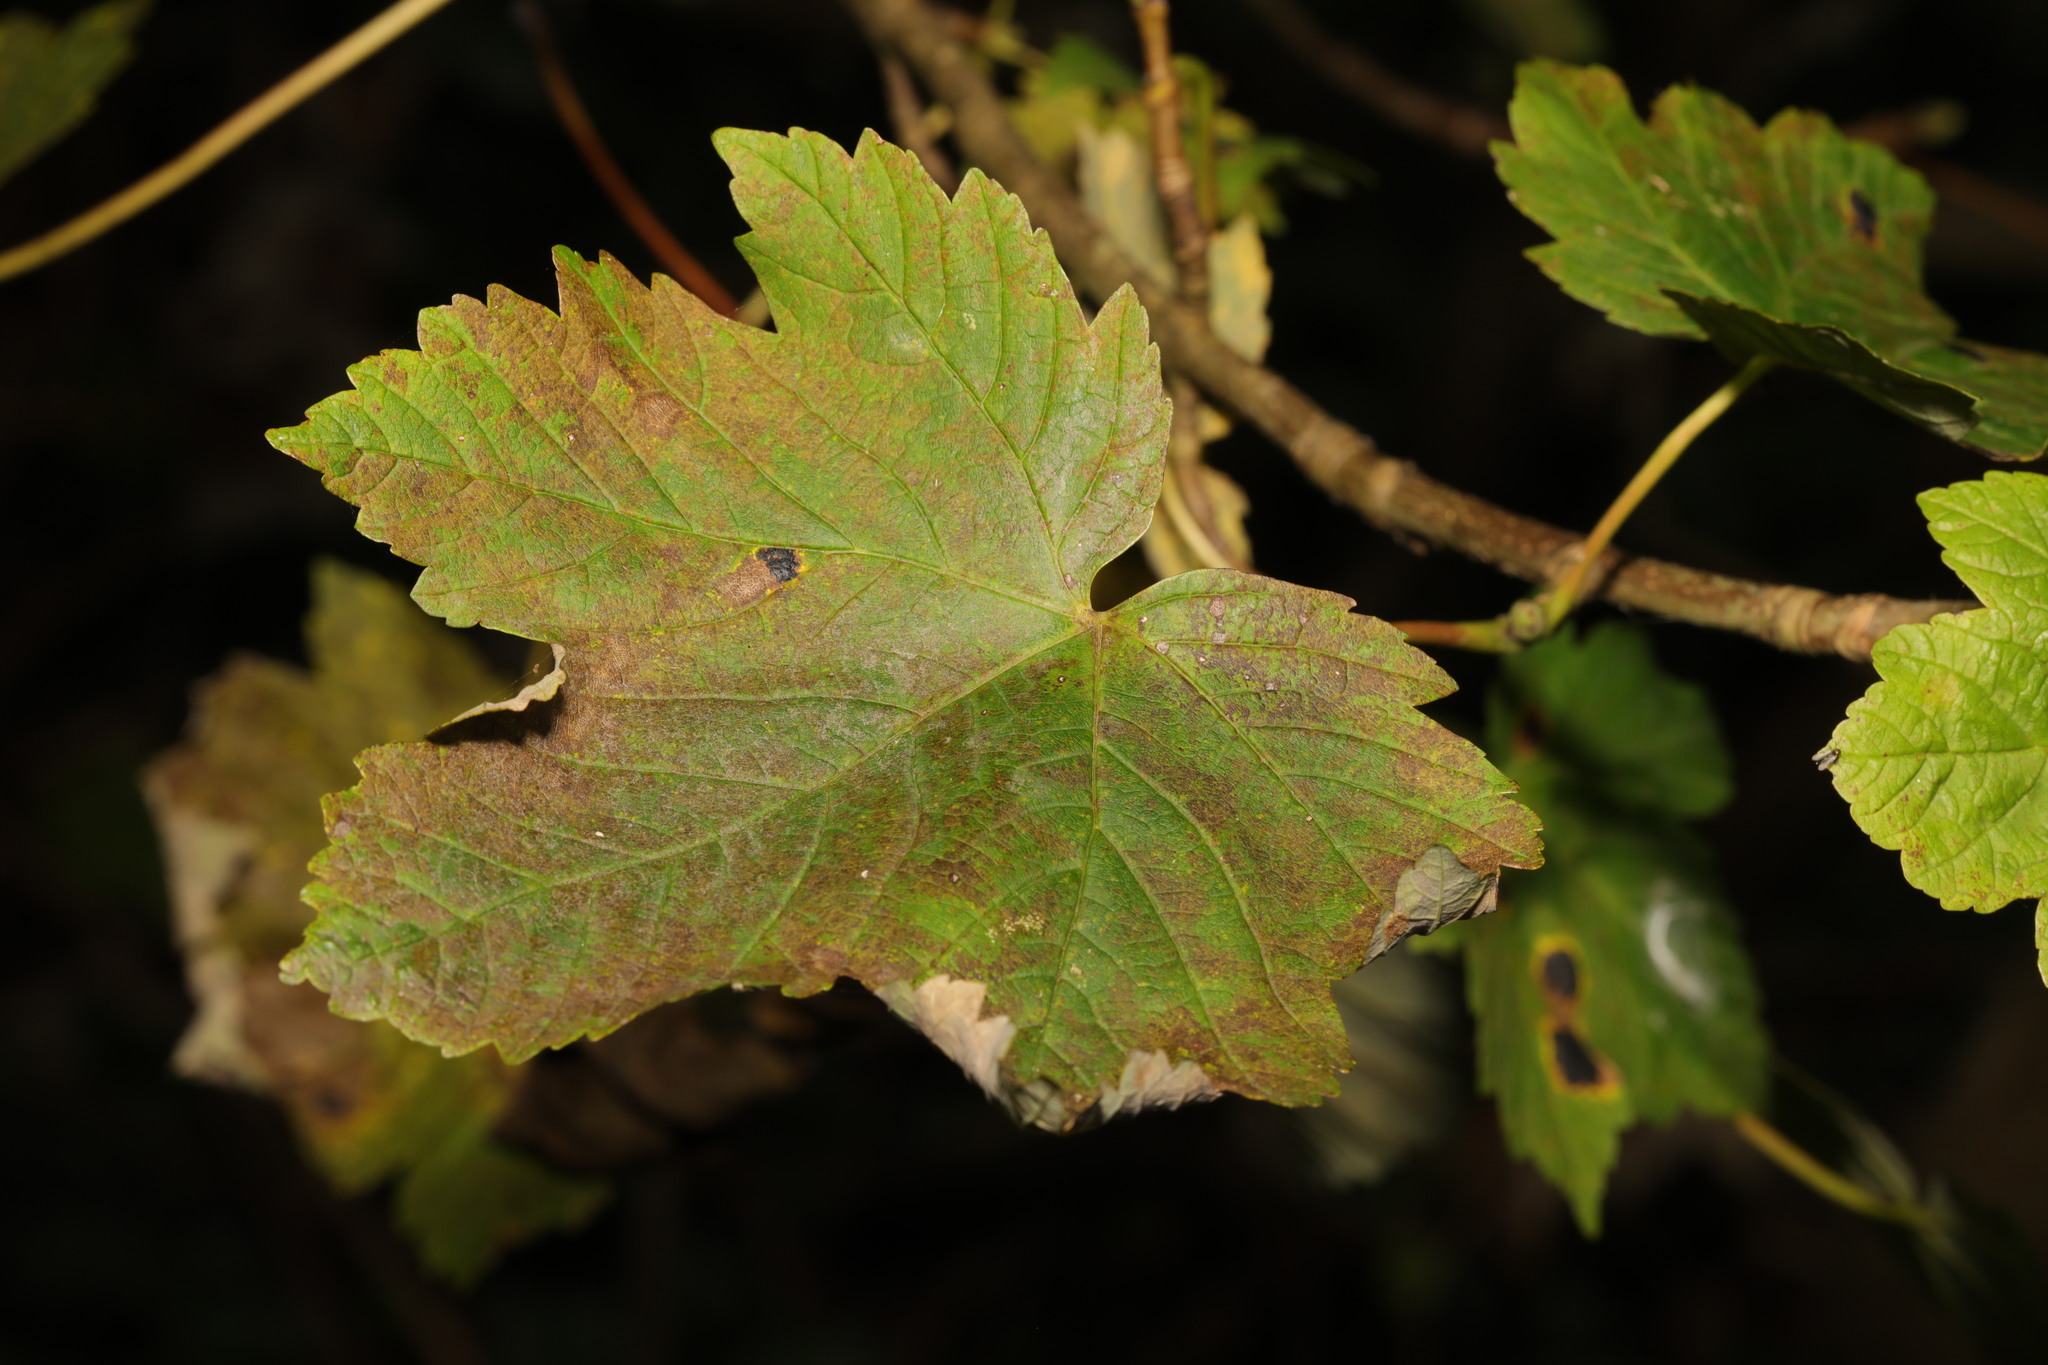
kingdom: Plantae
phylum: Tracheophyta
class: Magnoliopsida
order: Sapindales
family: Sapindaceae
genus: Acer
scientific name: Acer pseudoplatanus
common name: Sycamore
